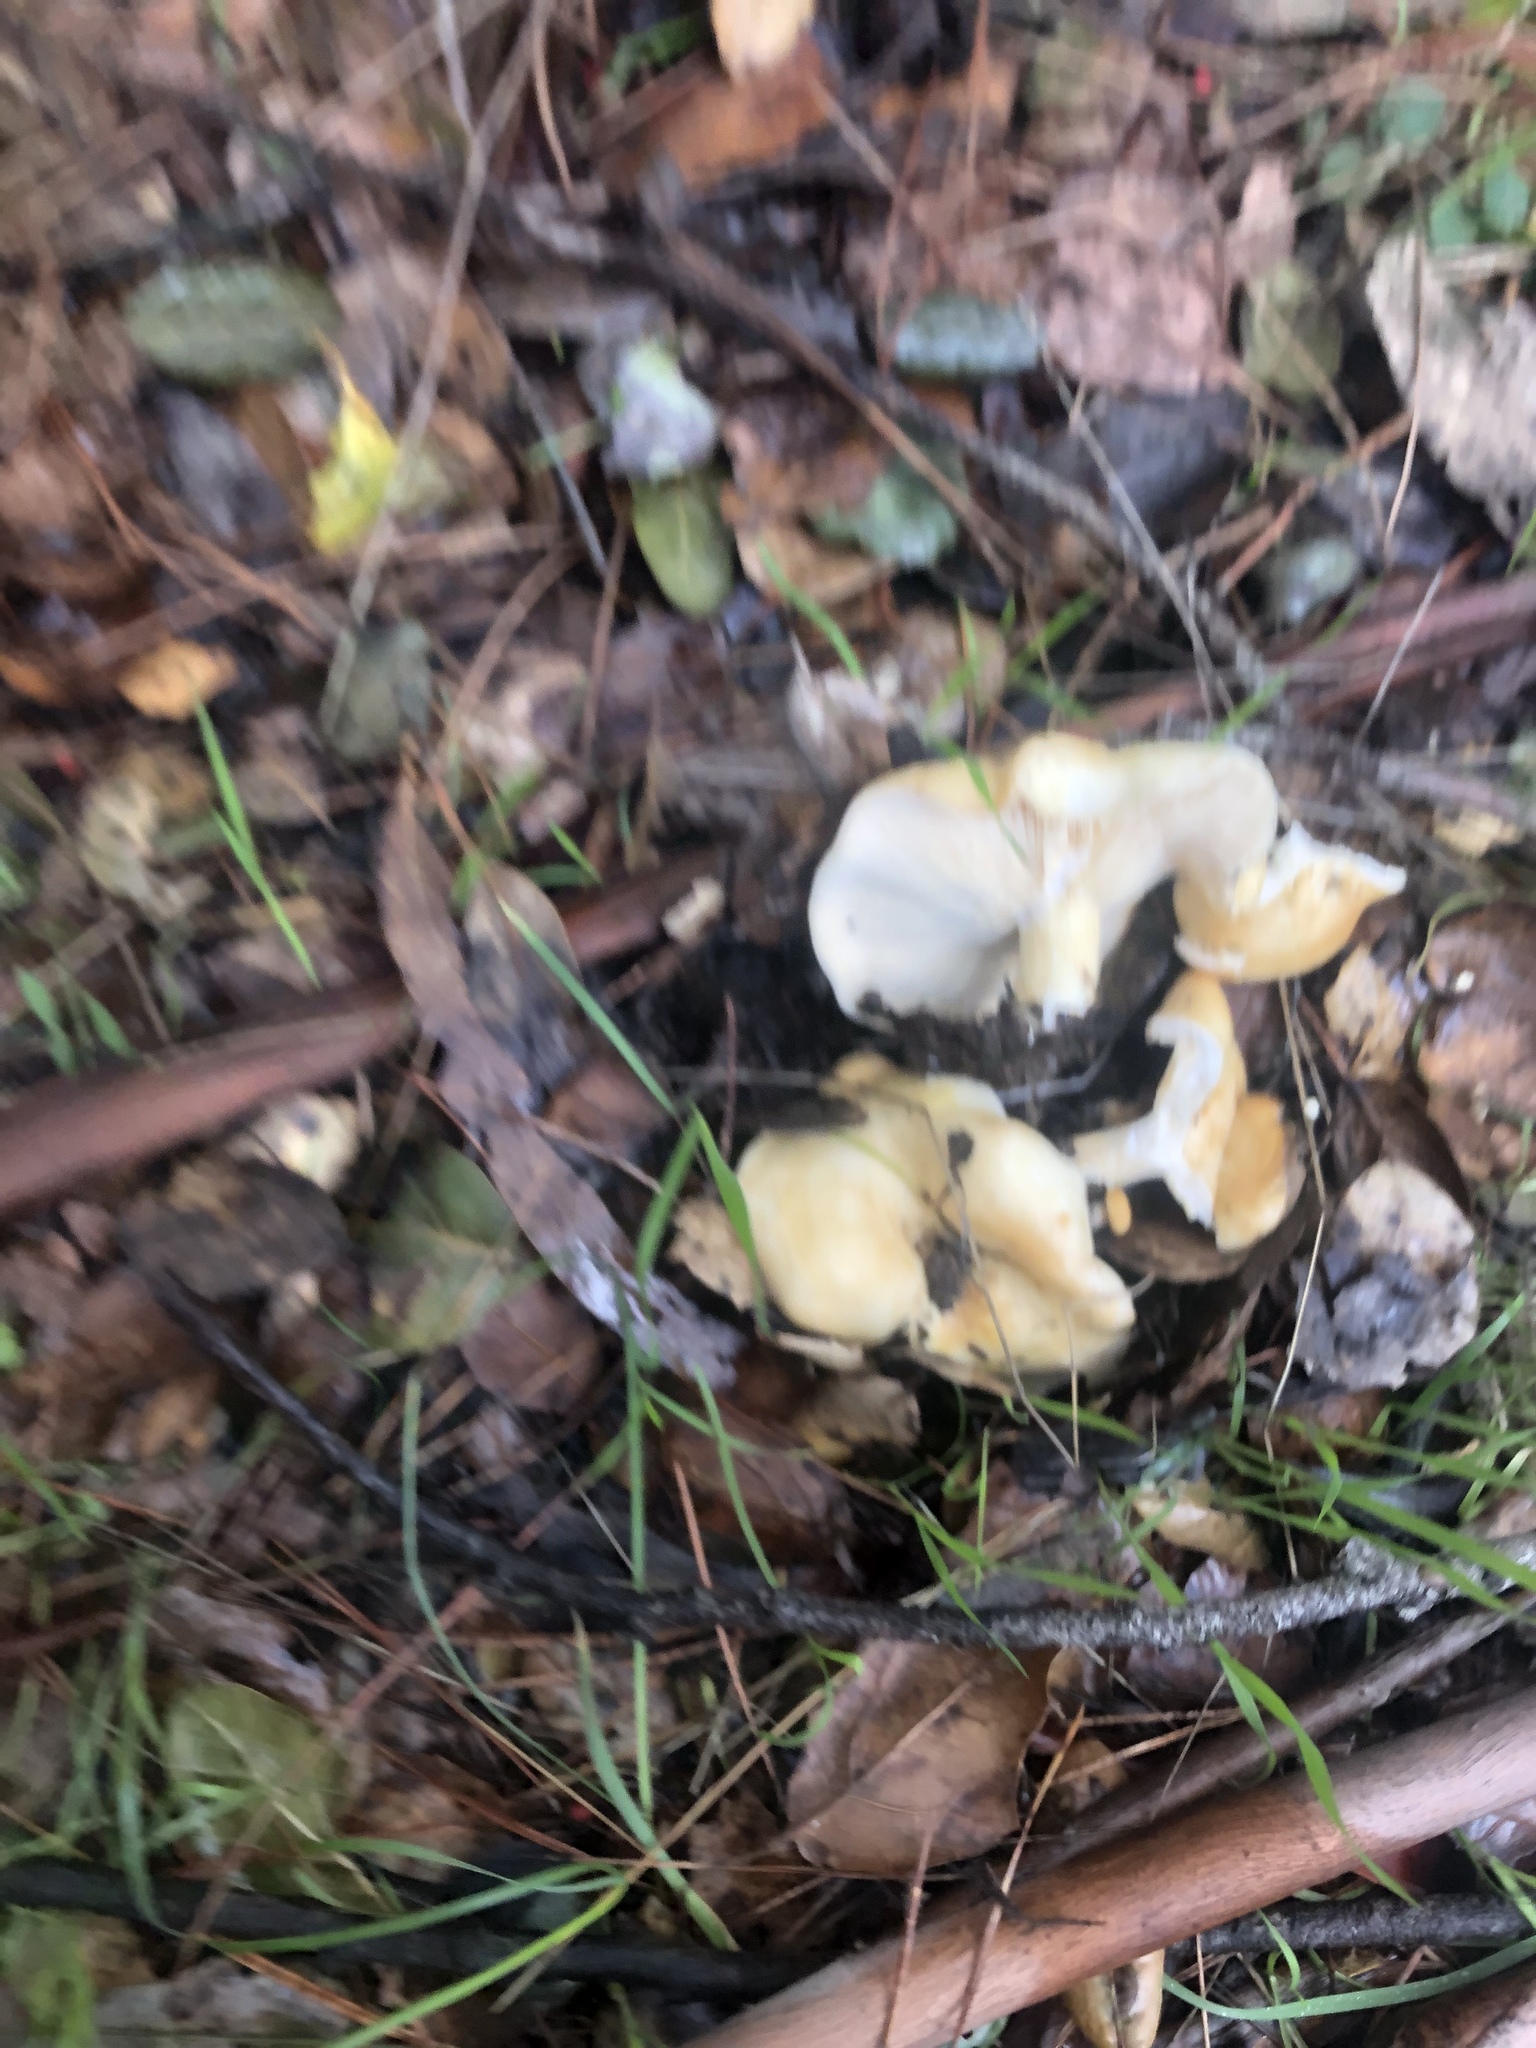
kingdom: Fungi
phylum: Basidiomycota
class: Agaricomycetes
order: Russulales
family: Russulaceae
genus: Lactarius
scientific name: Lactarius alnicola
